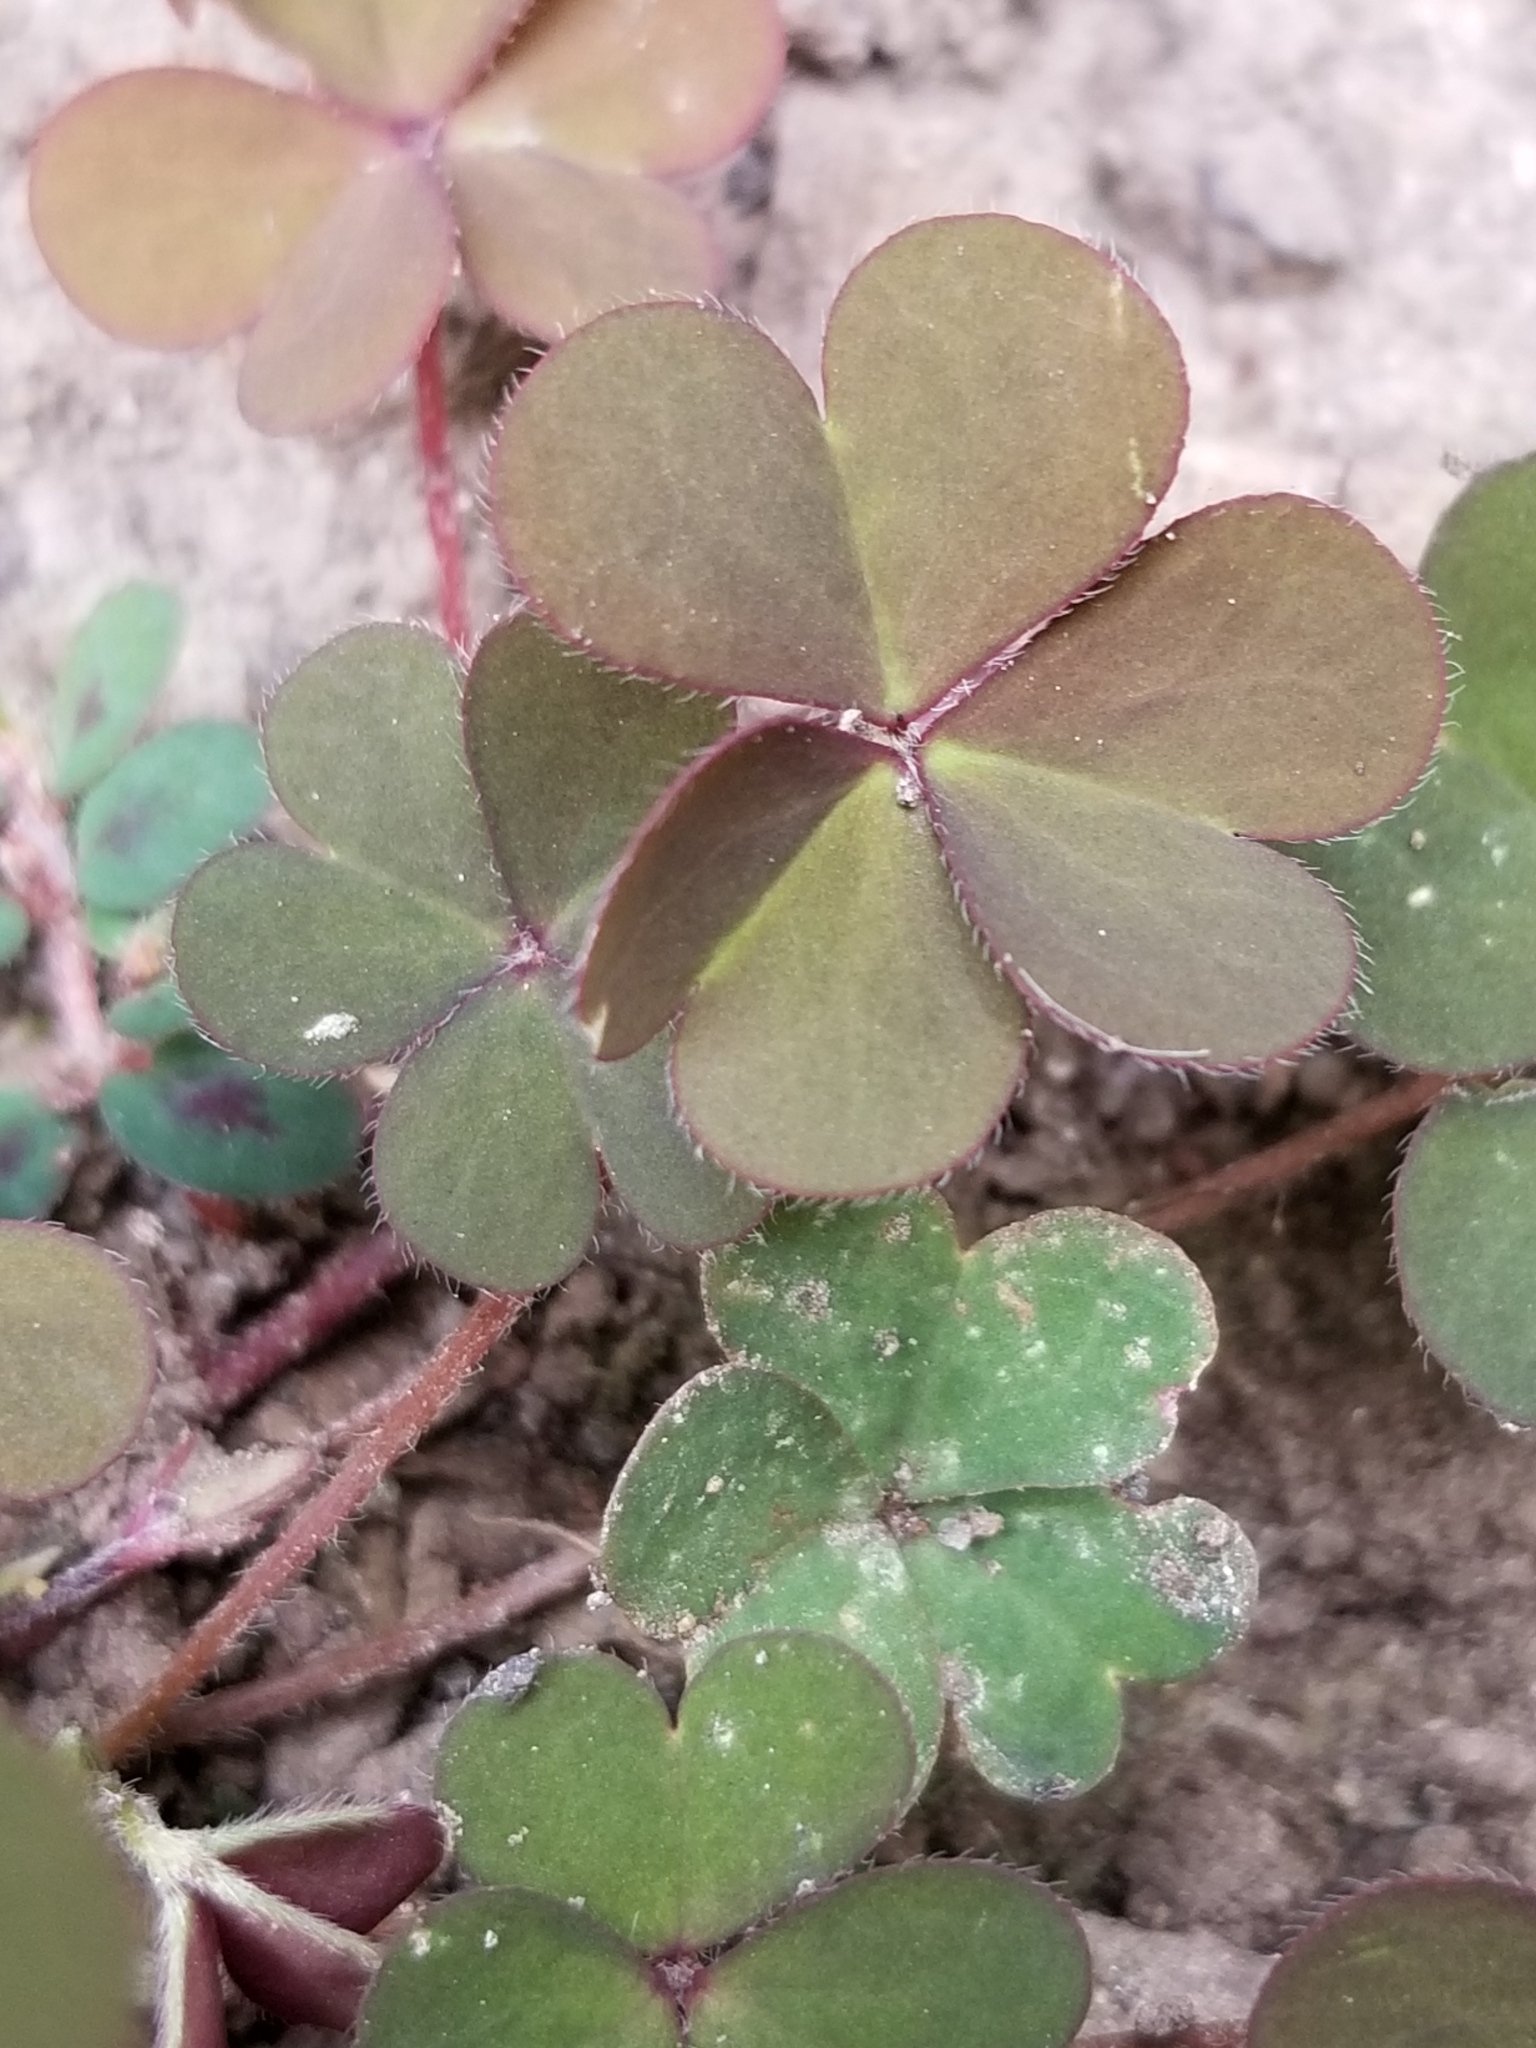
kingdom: Plantae
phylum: Tracheophyta
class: Magnoliopsida
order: Oxalidales
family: Oxalidaceae
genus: Oxalis
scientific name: Oxalis corniculata
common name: Procumbent yellow-sorrel
